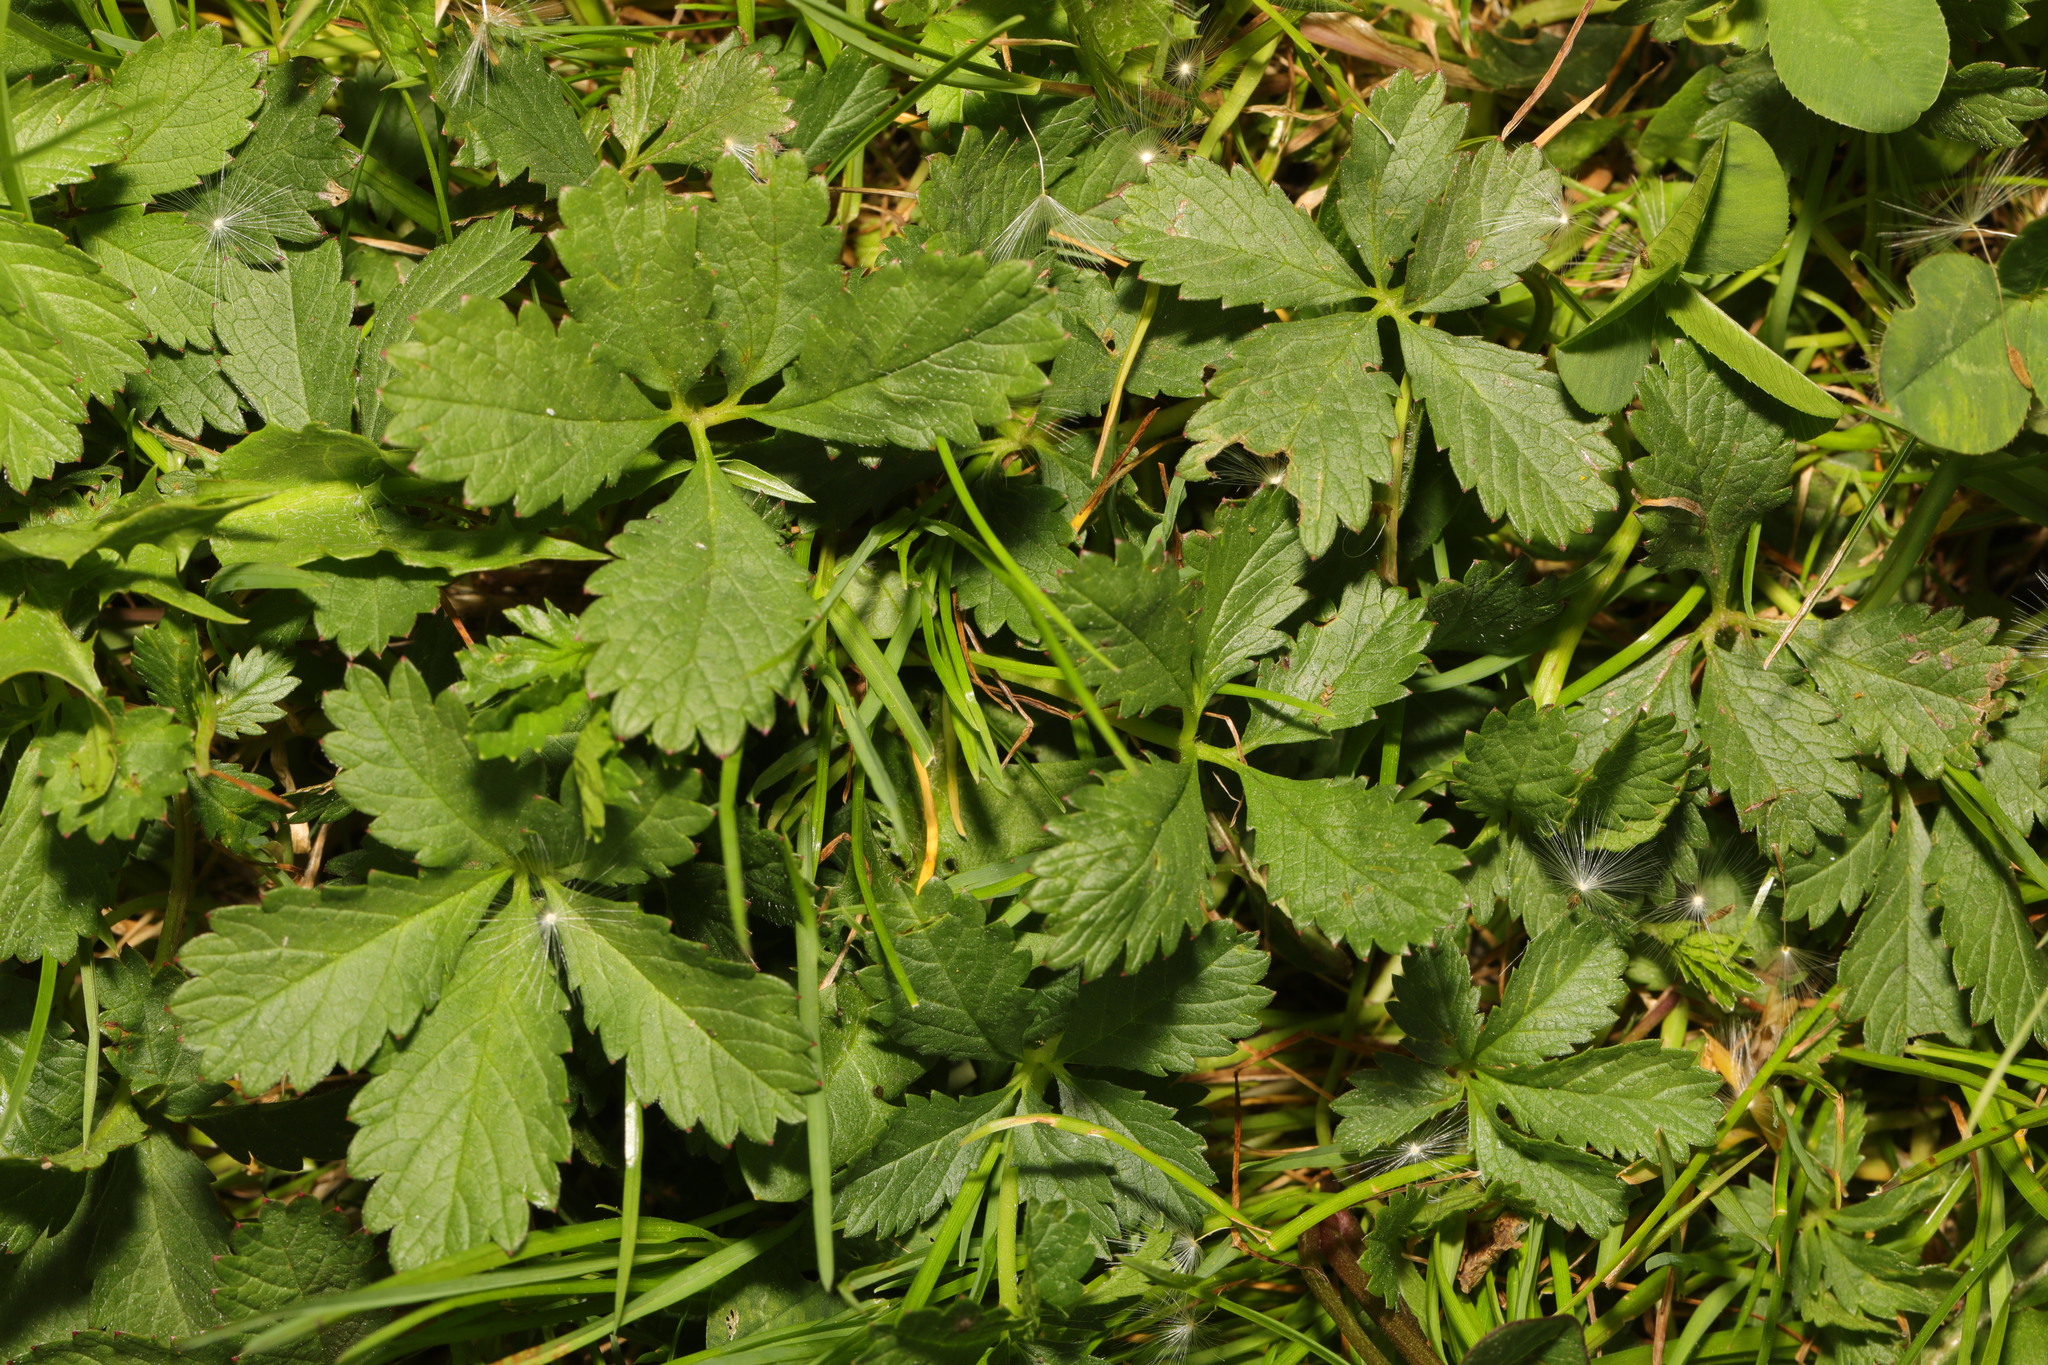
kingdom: Plantae
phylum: Tracheophyta
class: Magnoliopsida
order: Rosales
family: Rosaceae
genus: Potentilla
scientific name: Potentilla reptans
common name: Creeping cinquefoil
